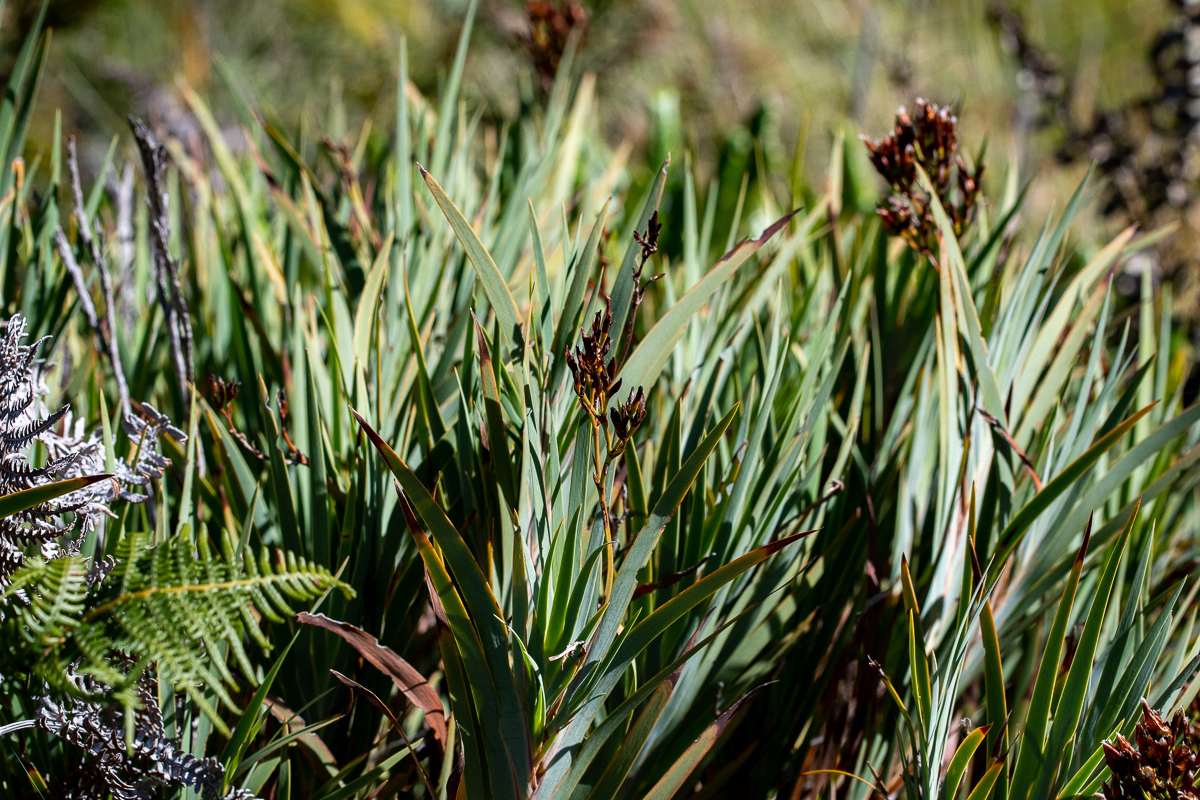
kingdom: Plantae
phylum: Tracheophyta
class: Liliopsida
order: Asparagales
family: Iridaceae
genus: Nivenia
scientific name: Nivenia stokoei
